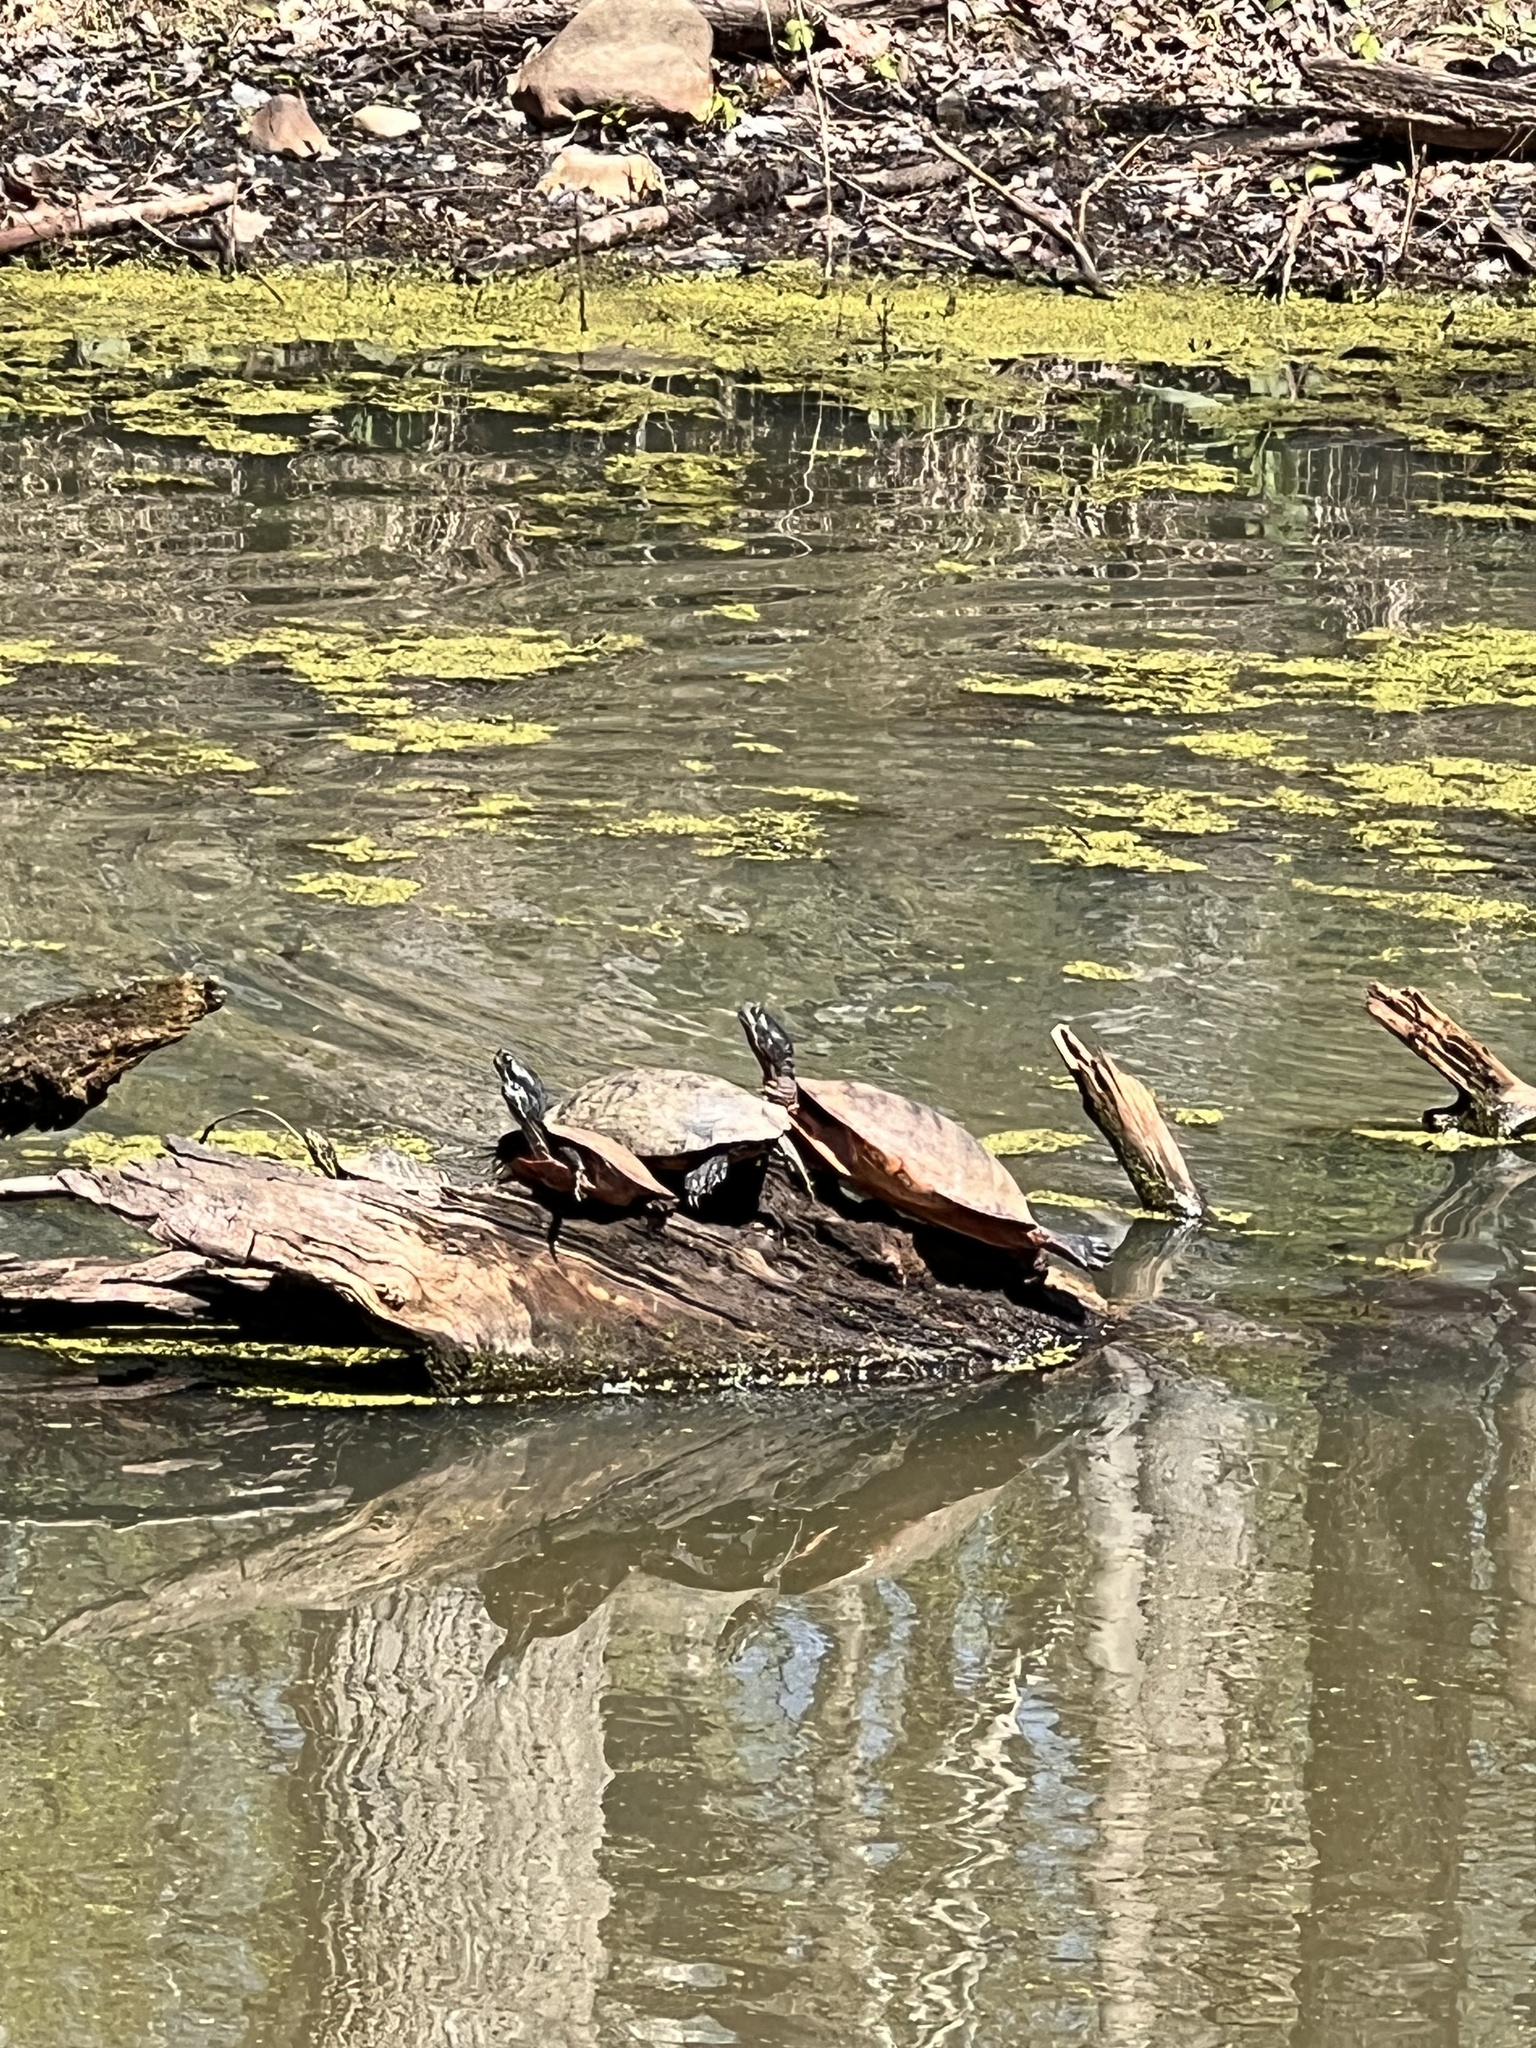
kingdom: Animalia
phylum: Chordata
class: Testudines
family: Emydidae
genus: Pseudemys
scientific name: Pseudemys rubriventris
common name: American red-bellied turtle
